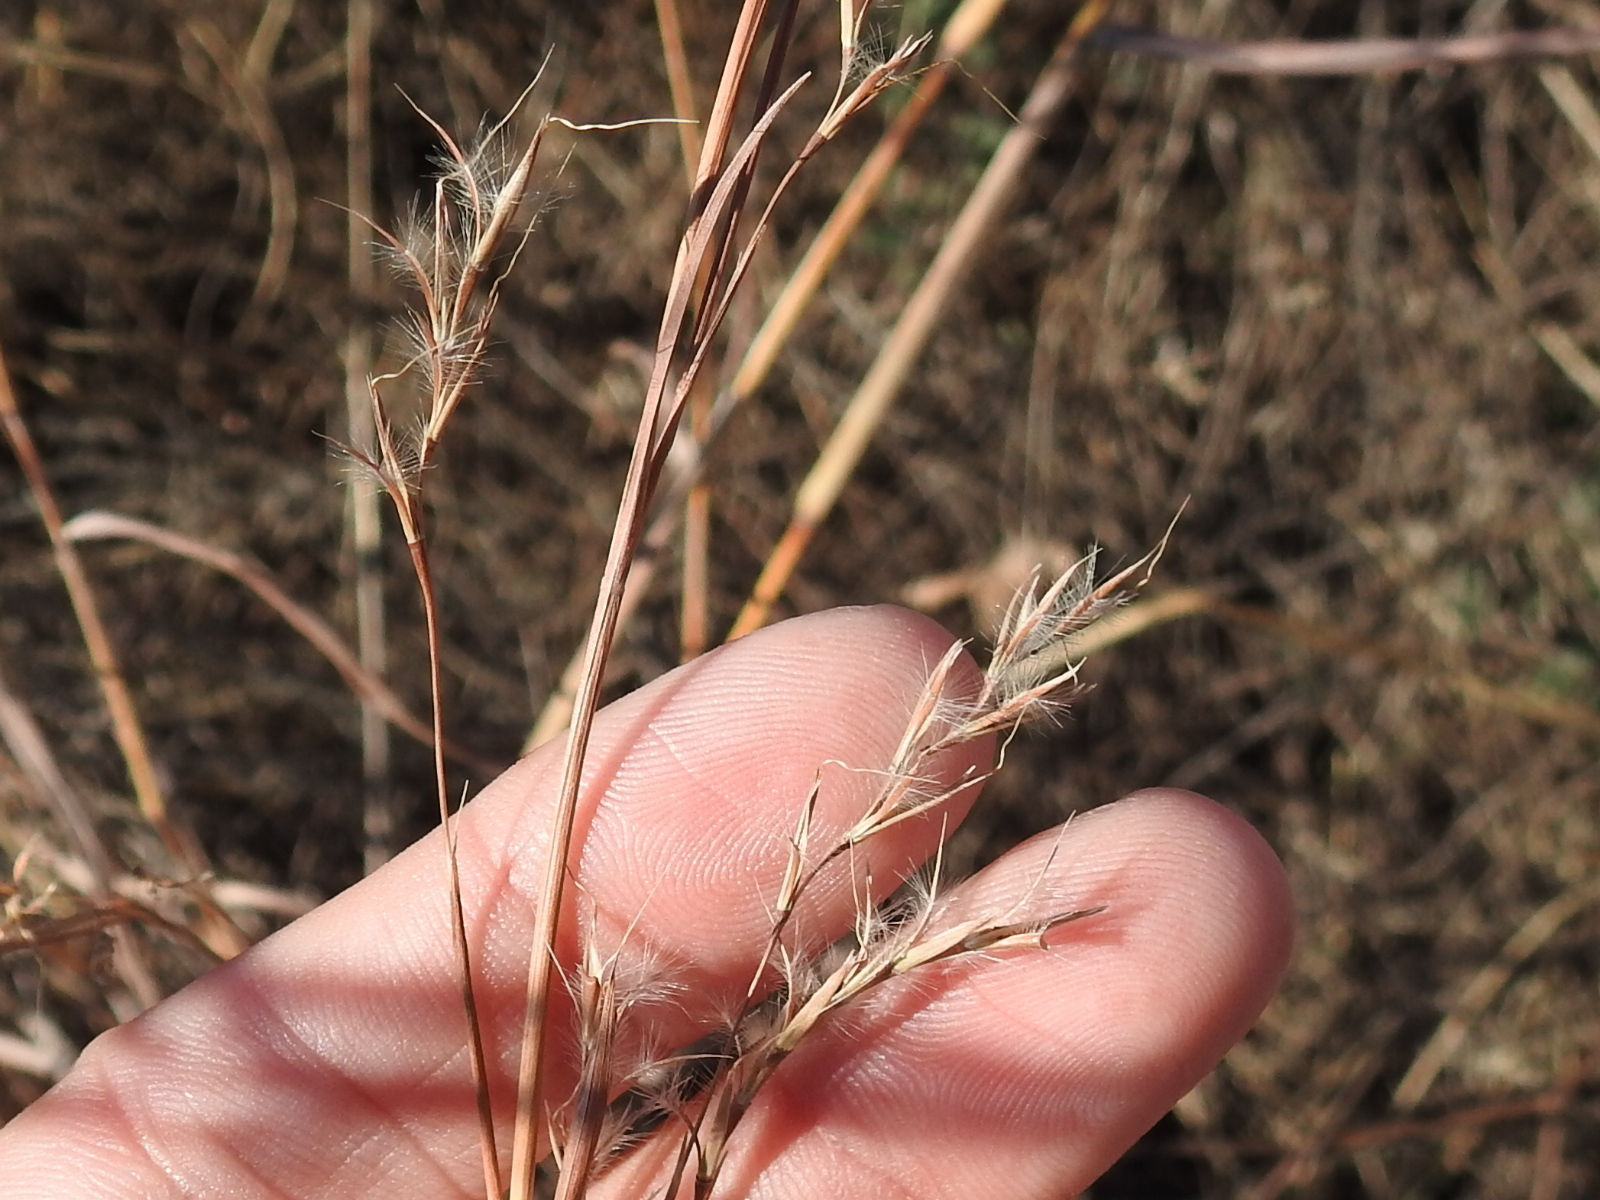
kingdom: Plantae
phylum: Tracheophyta
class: Liliopsida
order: Poales
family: Poaceae
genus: Schizachyrium
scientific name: Schizachyrium scoparium
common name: Little bluestem
